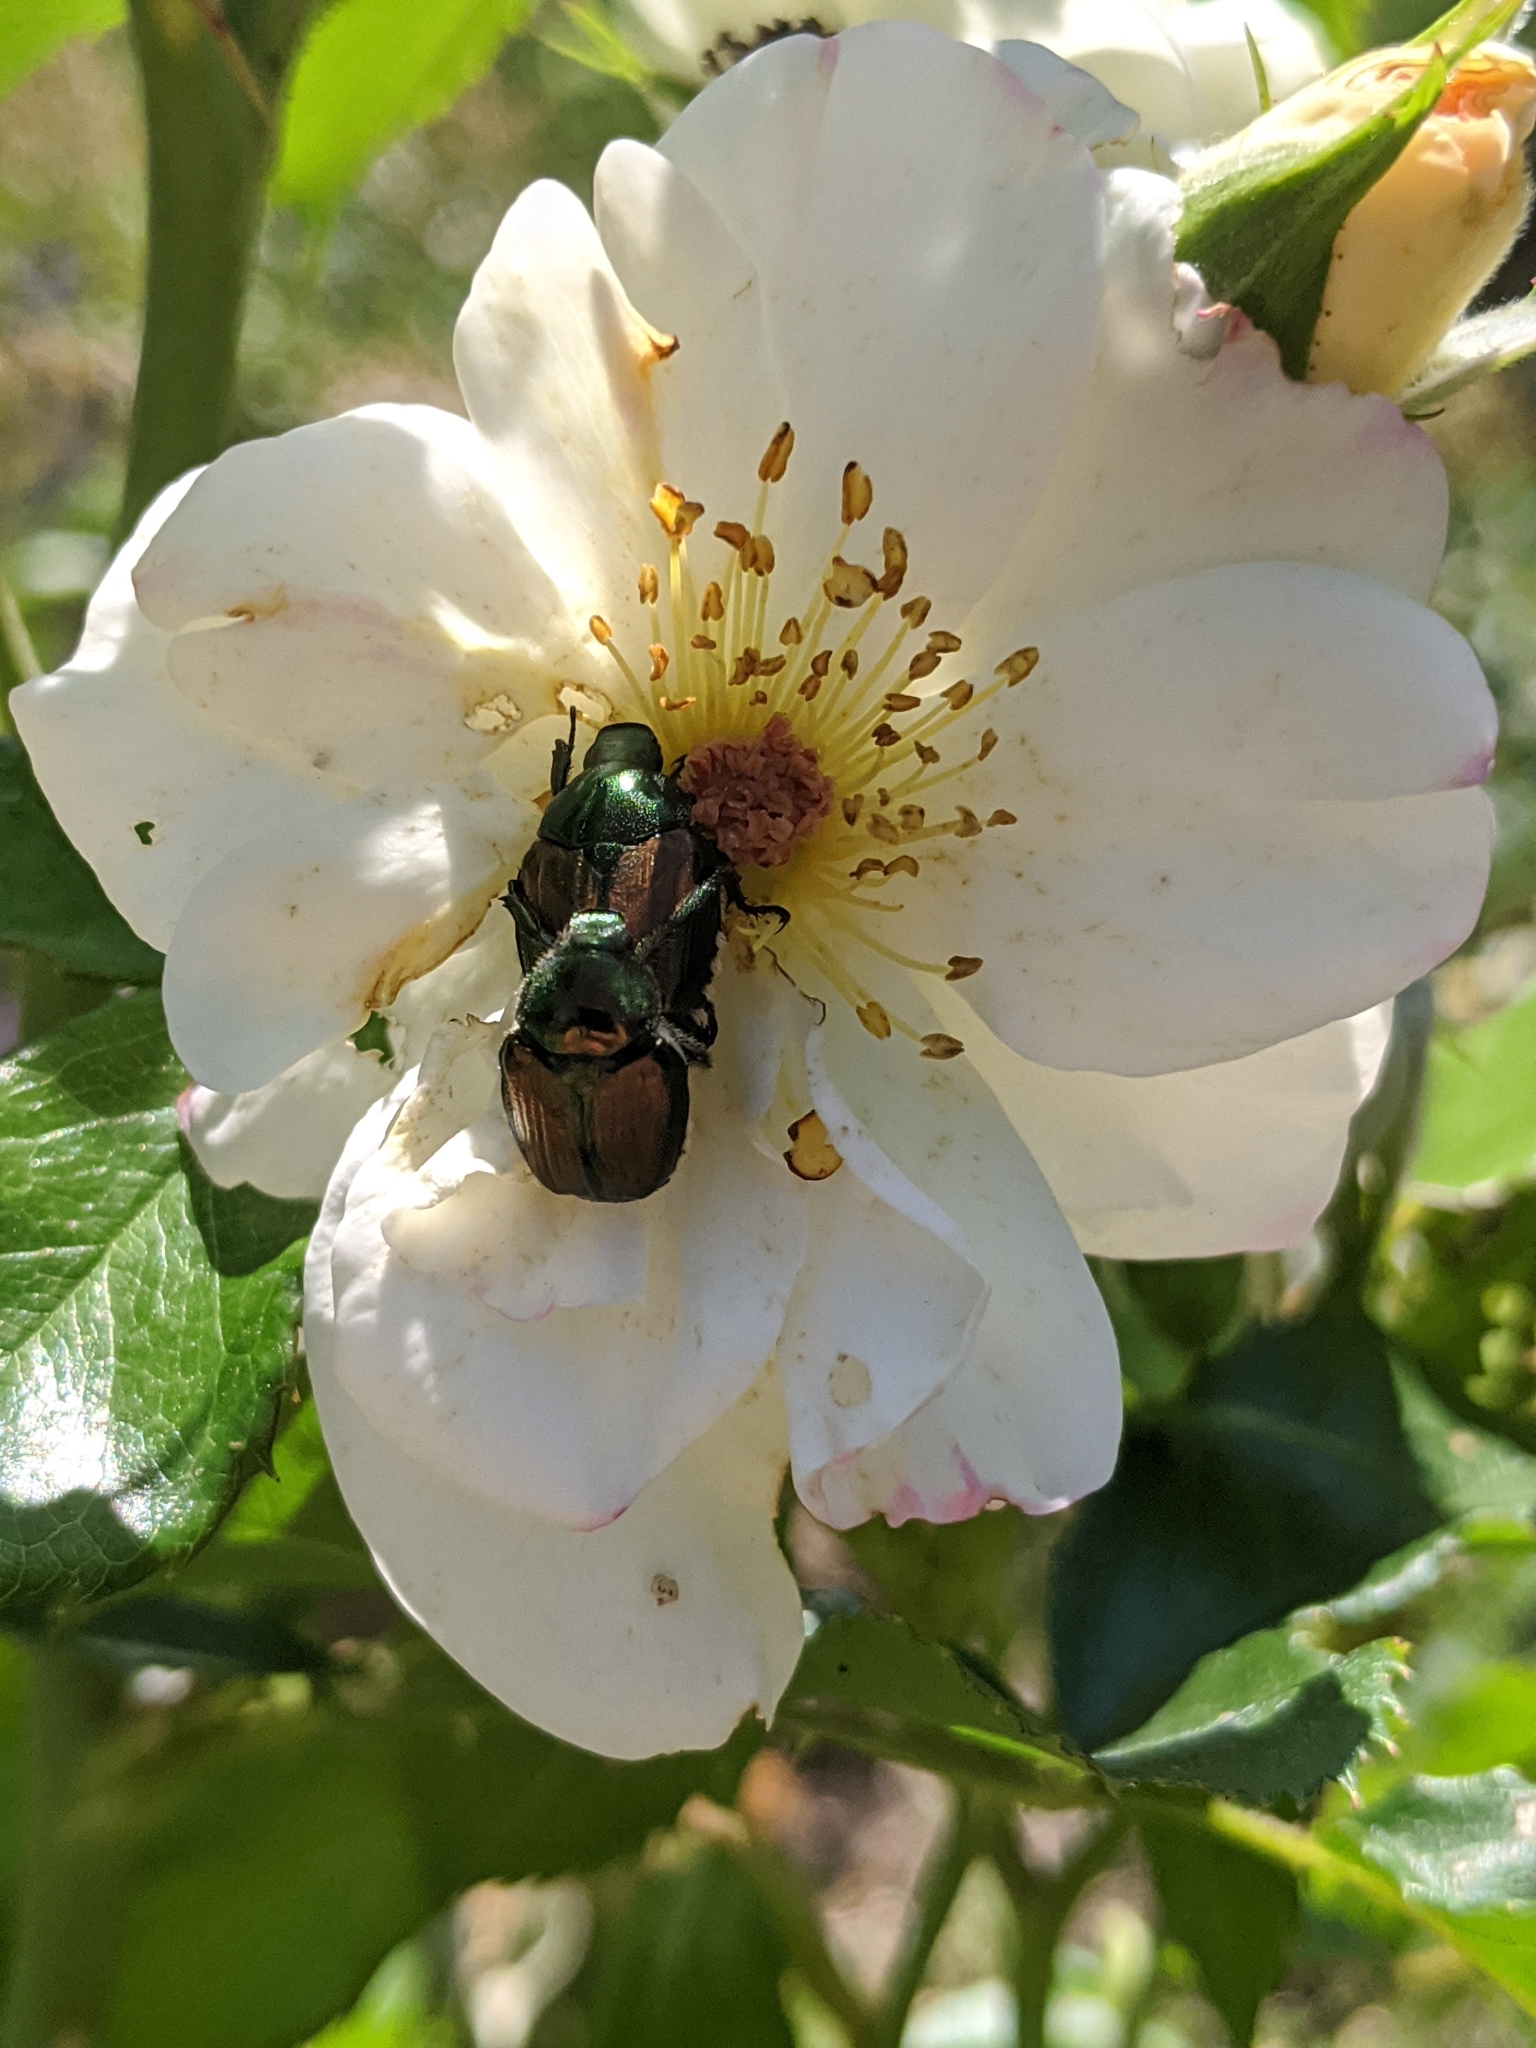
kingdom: Animalia
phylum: Arthropoda
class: Insecta
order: Coleoptera
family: Scarabaeidae
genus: Popillia
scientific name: Popillia japonica
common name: Japanese beetle
